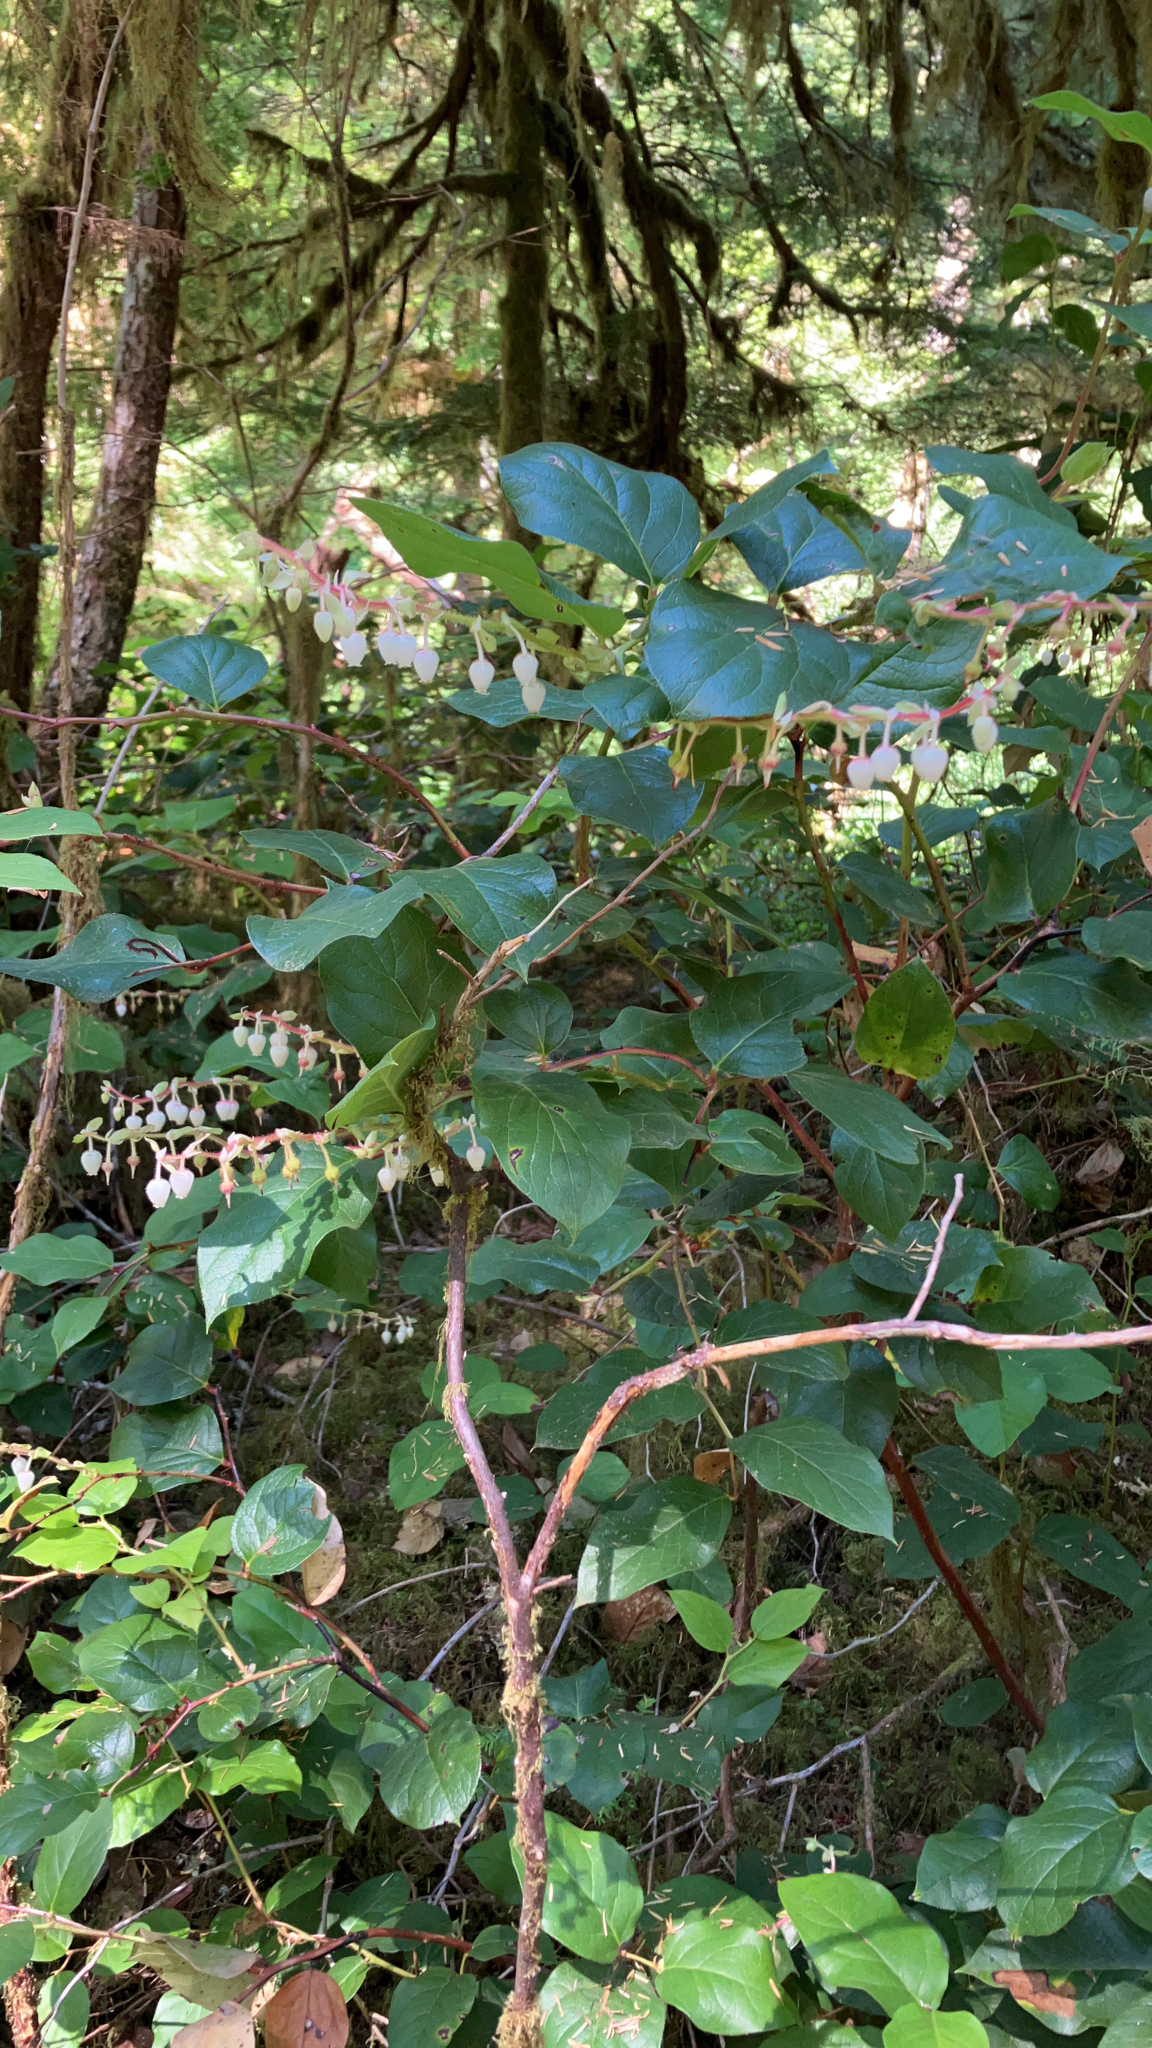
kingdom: Plantae
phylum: Tracheophyta
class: Magnoliopsida
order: Ericales
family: Ericaceae
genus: Gaultheria
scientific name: Gaultheria shallon
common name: Shallon
